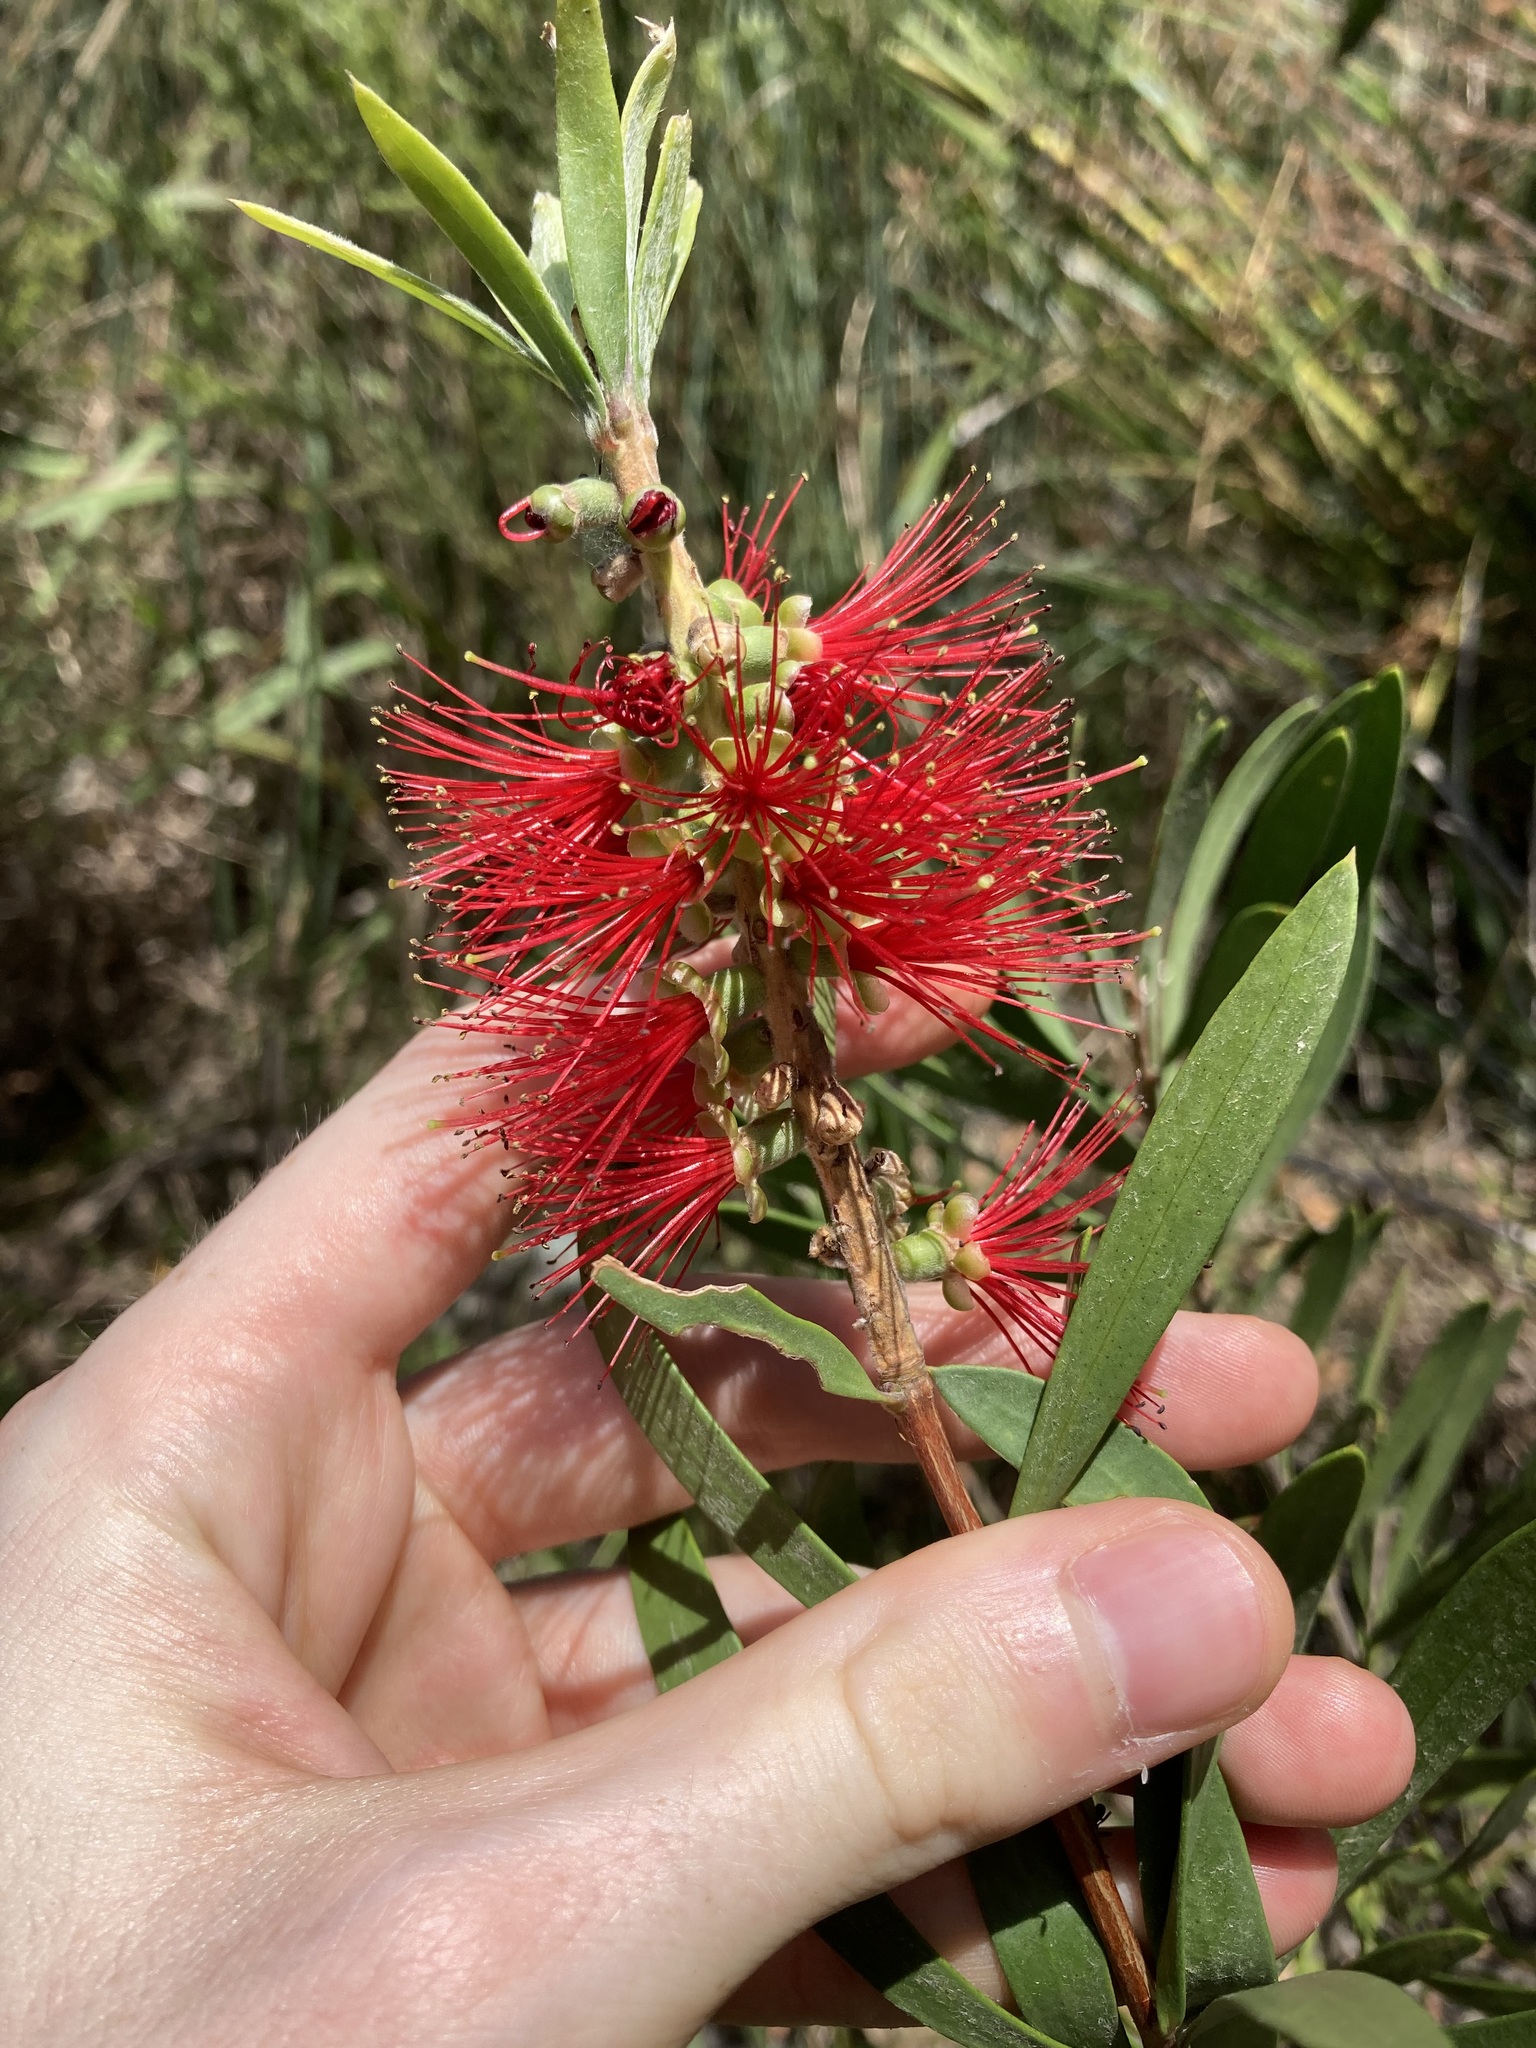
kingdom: Plantae
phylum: Tracheophyta
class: Magnoliopsida
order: Myrtales
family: Myrtaceae
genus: Callistemon
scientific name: Callistemon pachyphyllus
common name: Wallum bottlebrush
